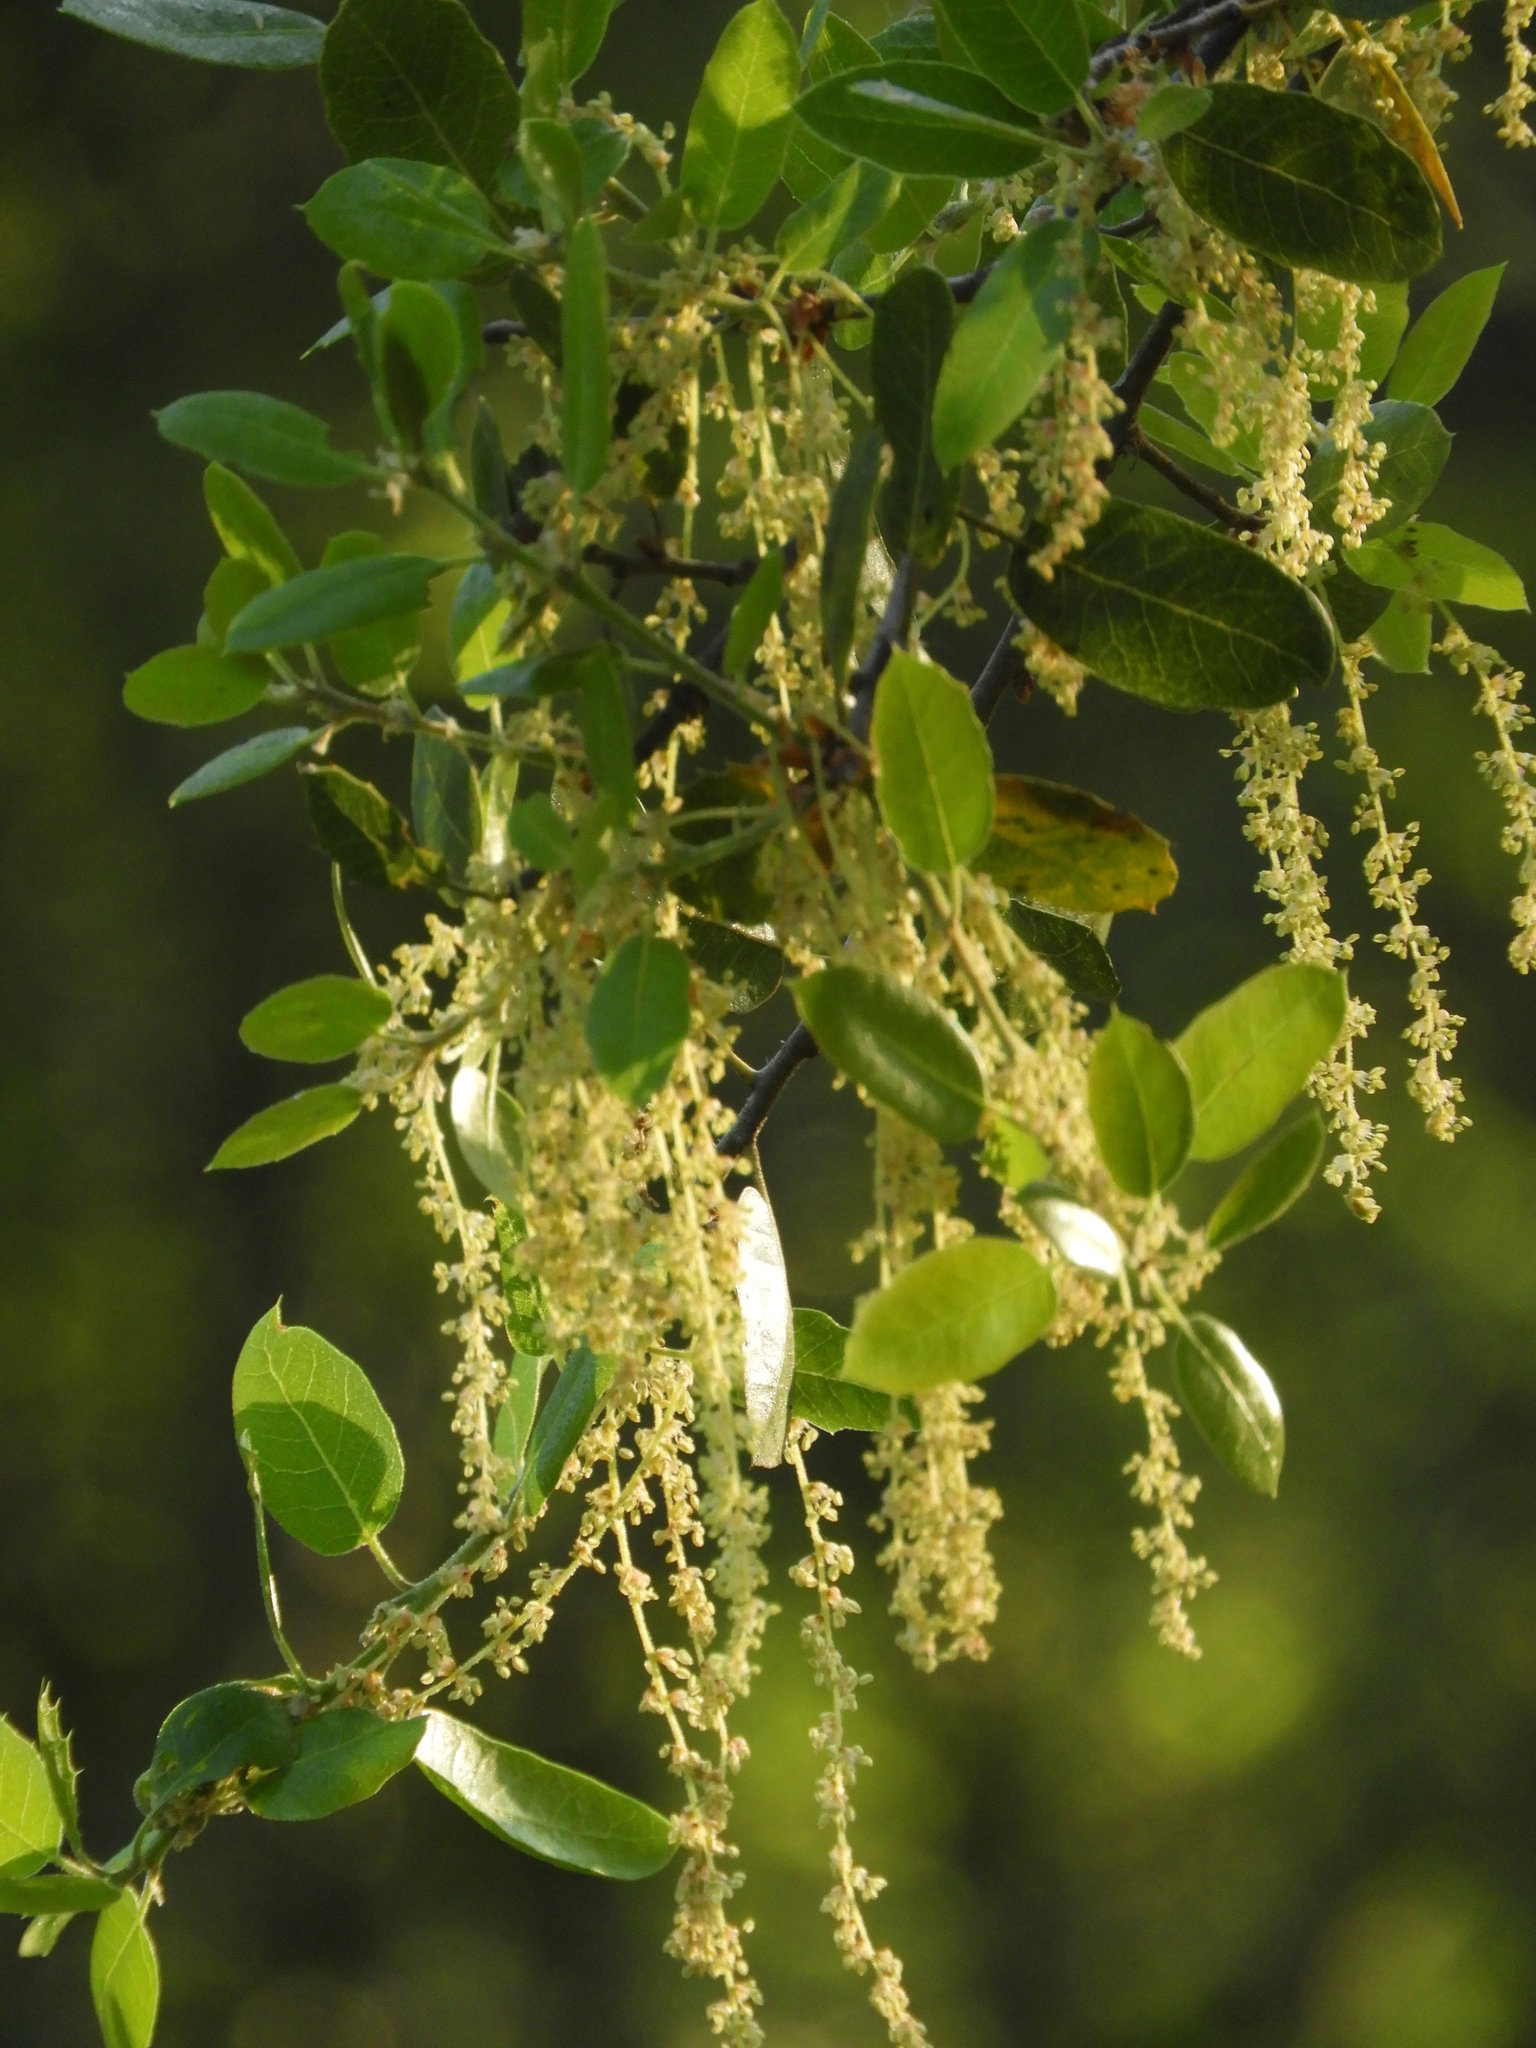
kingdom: Plantae
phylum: Tracheophyta
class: Magnoliopsida
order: Fagales
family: Fagaceae
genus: Quercus
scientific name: Quercus wislizeni
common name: Interior live oak
